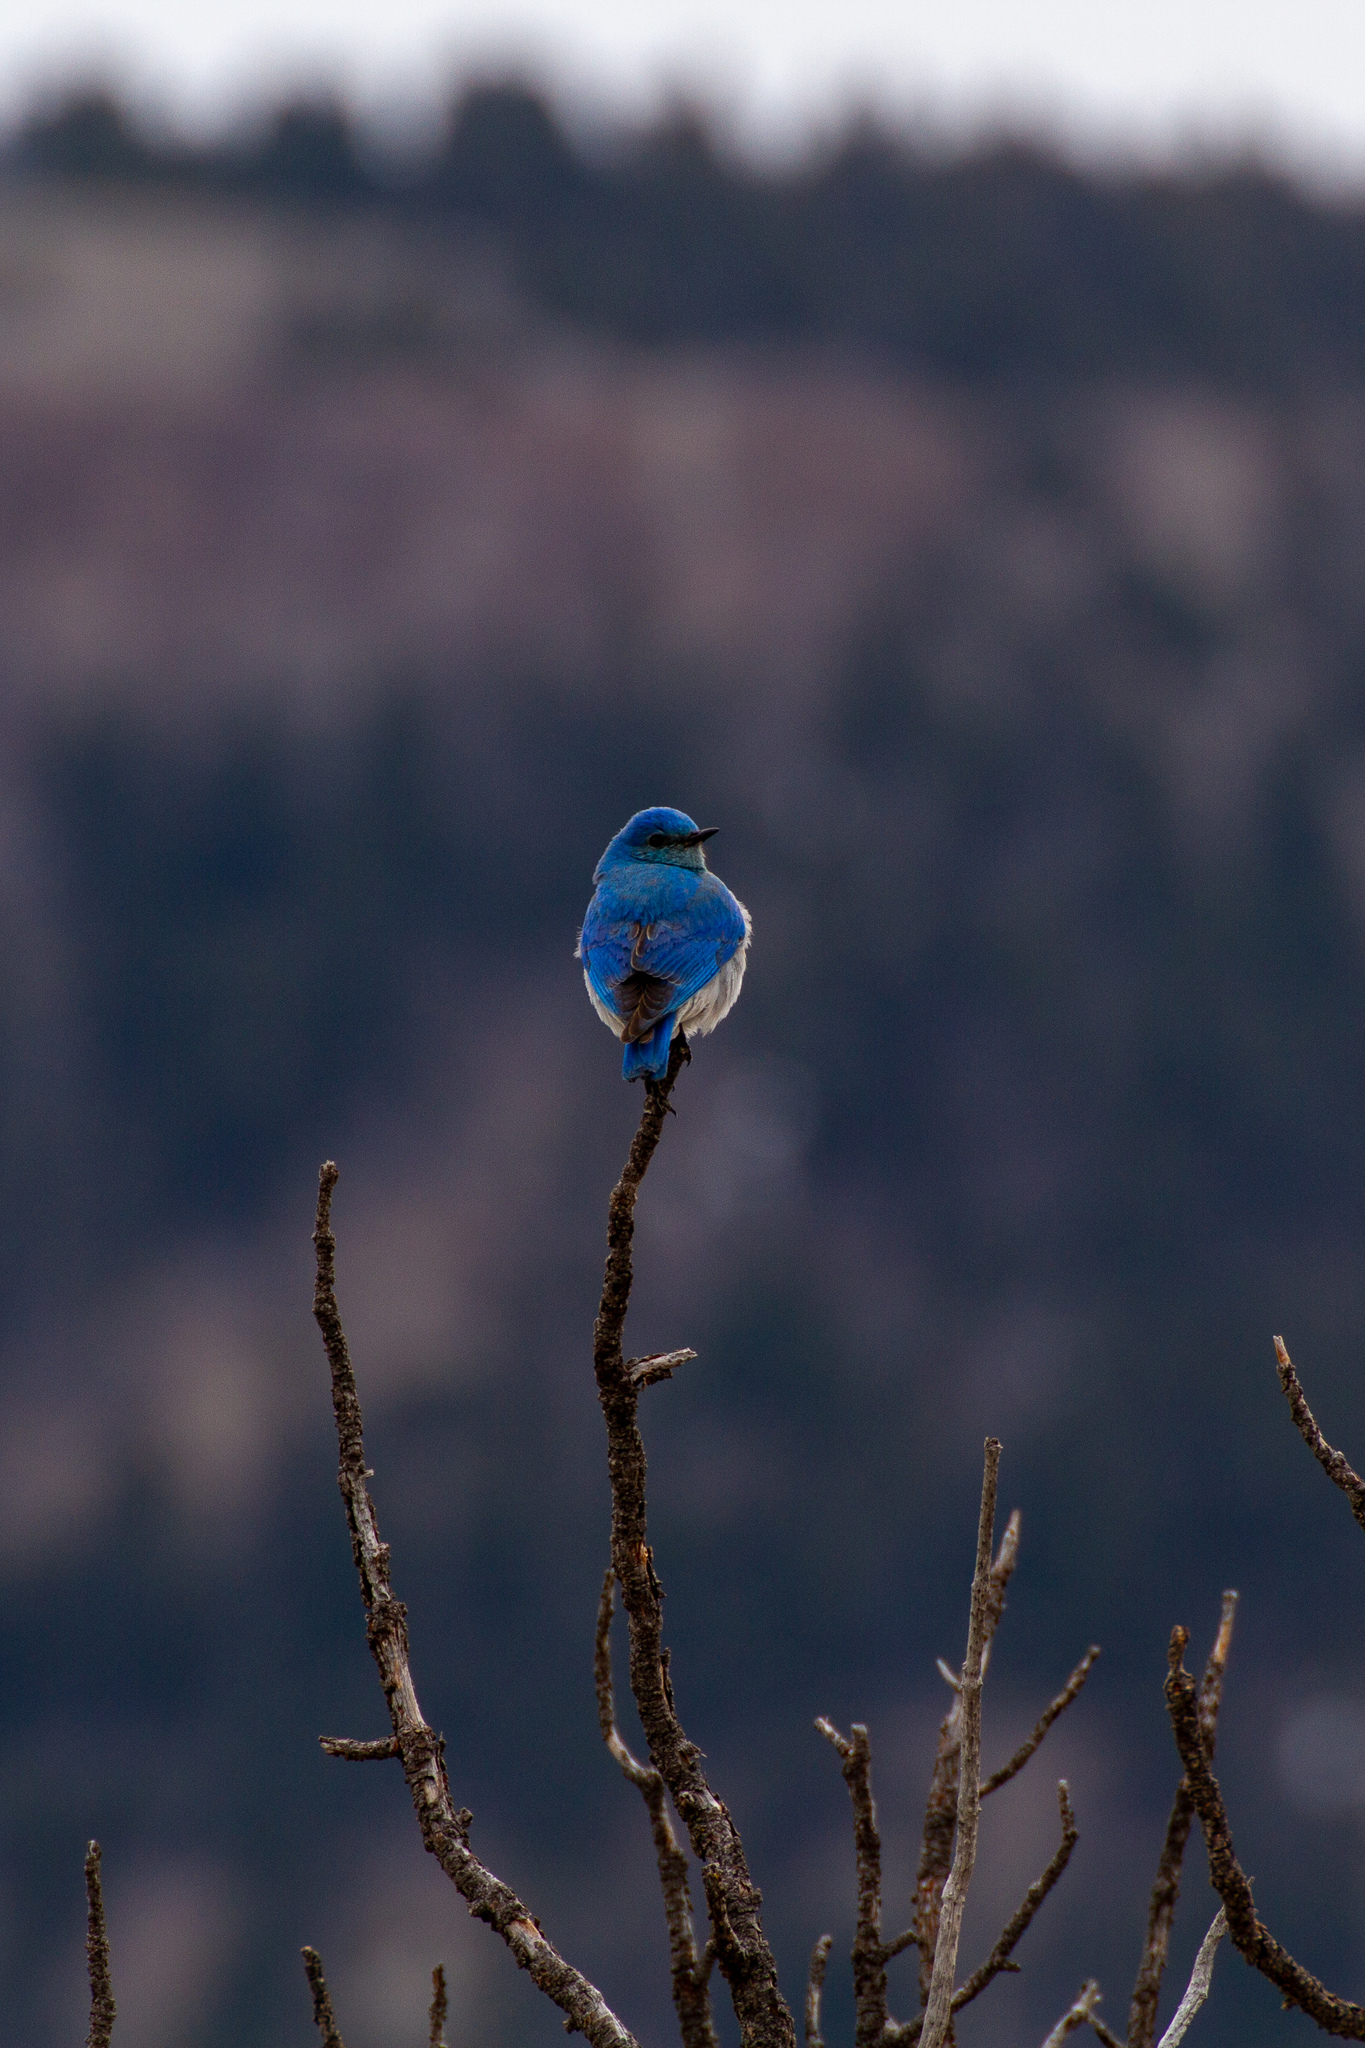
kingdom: Animalia
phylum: Chordata
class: Aves
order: Passeriformes
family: Turdidae
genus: Sialia
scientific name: Sialia currucoides
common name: Mountain bluebird
